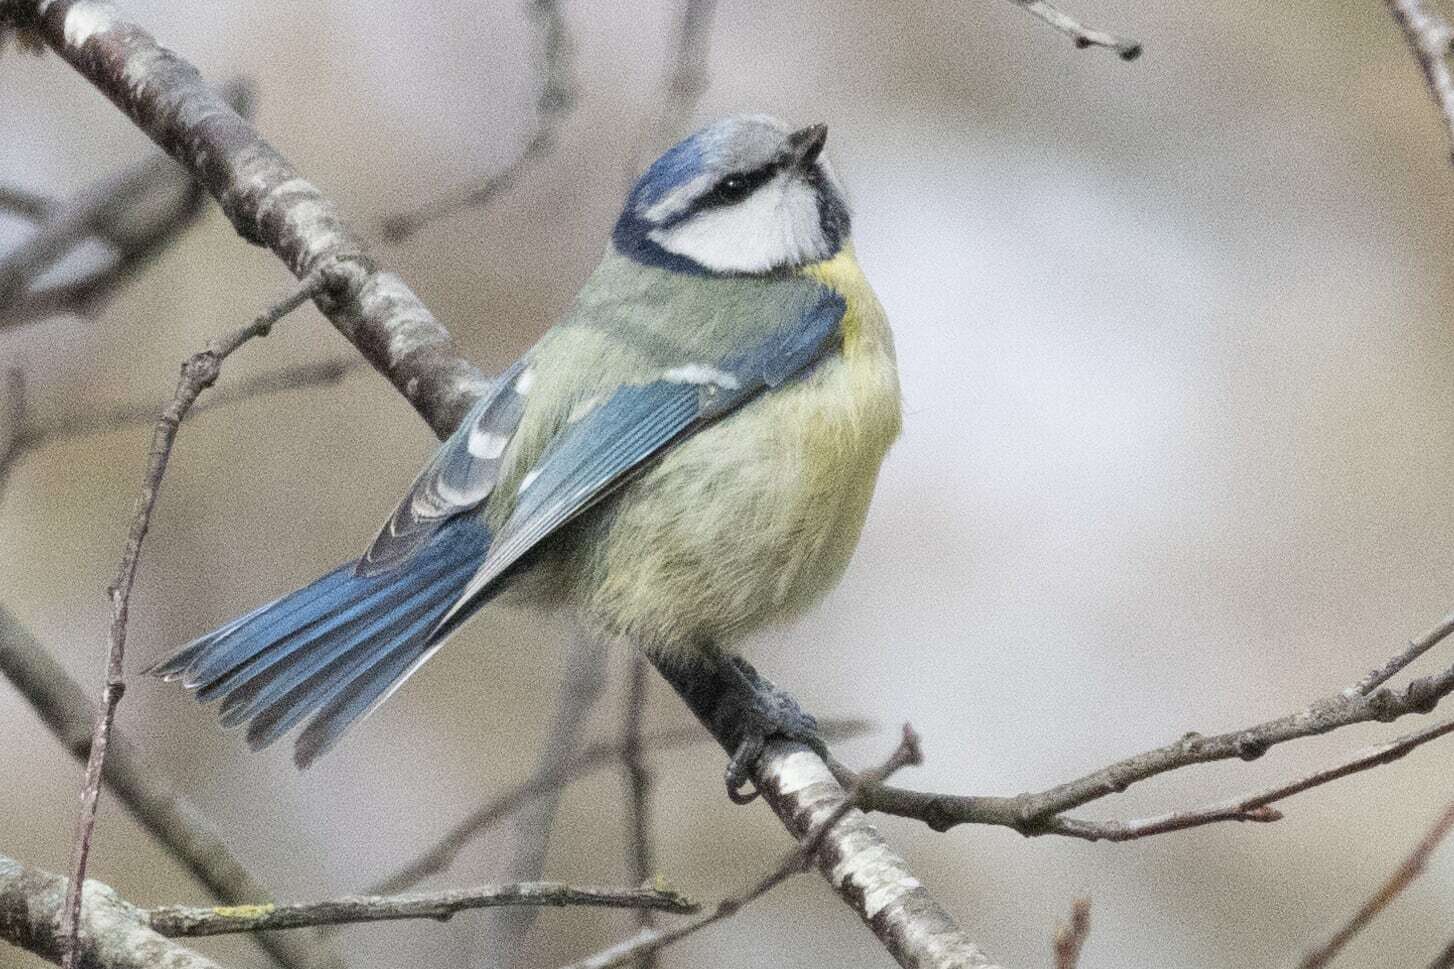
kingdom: Animalia
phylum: Chordata
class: Aves
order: Passeriformes
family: Paridae
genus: Cyanistes
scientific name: Cyanistes caeruleus
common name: Eurasian blue tit
